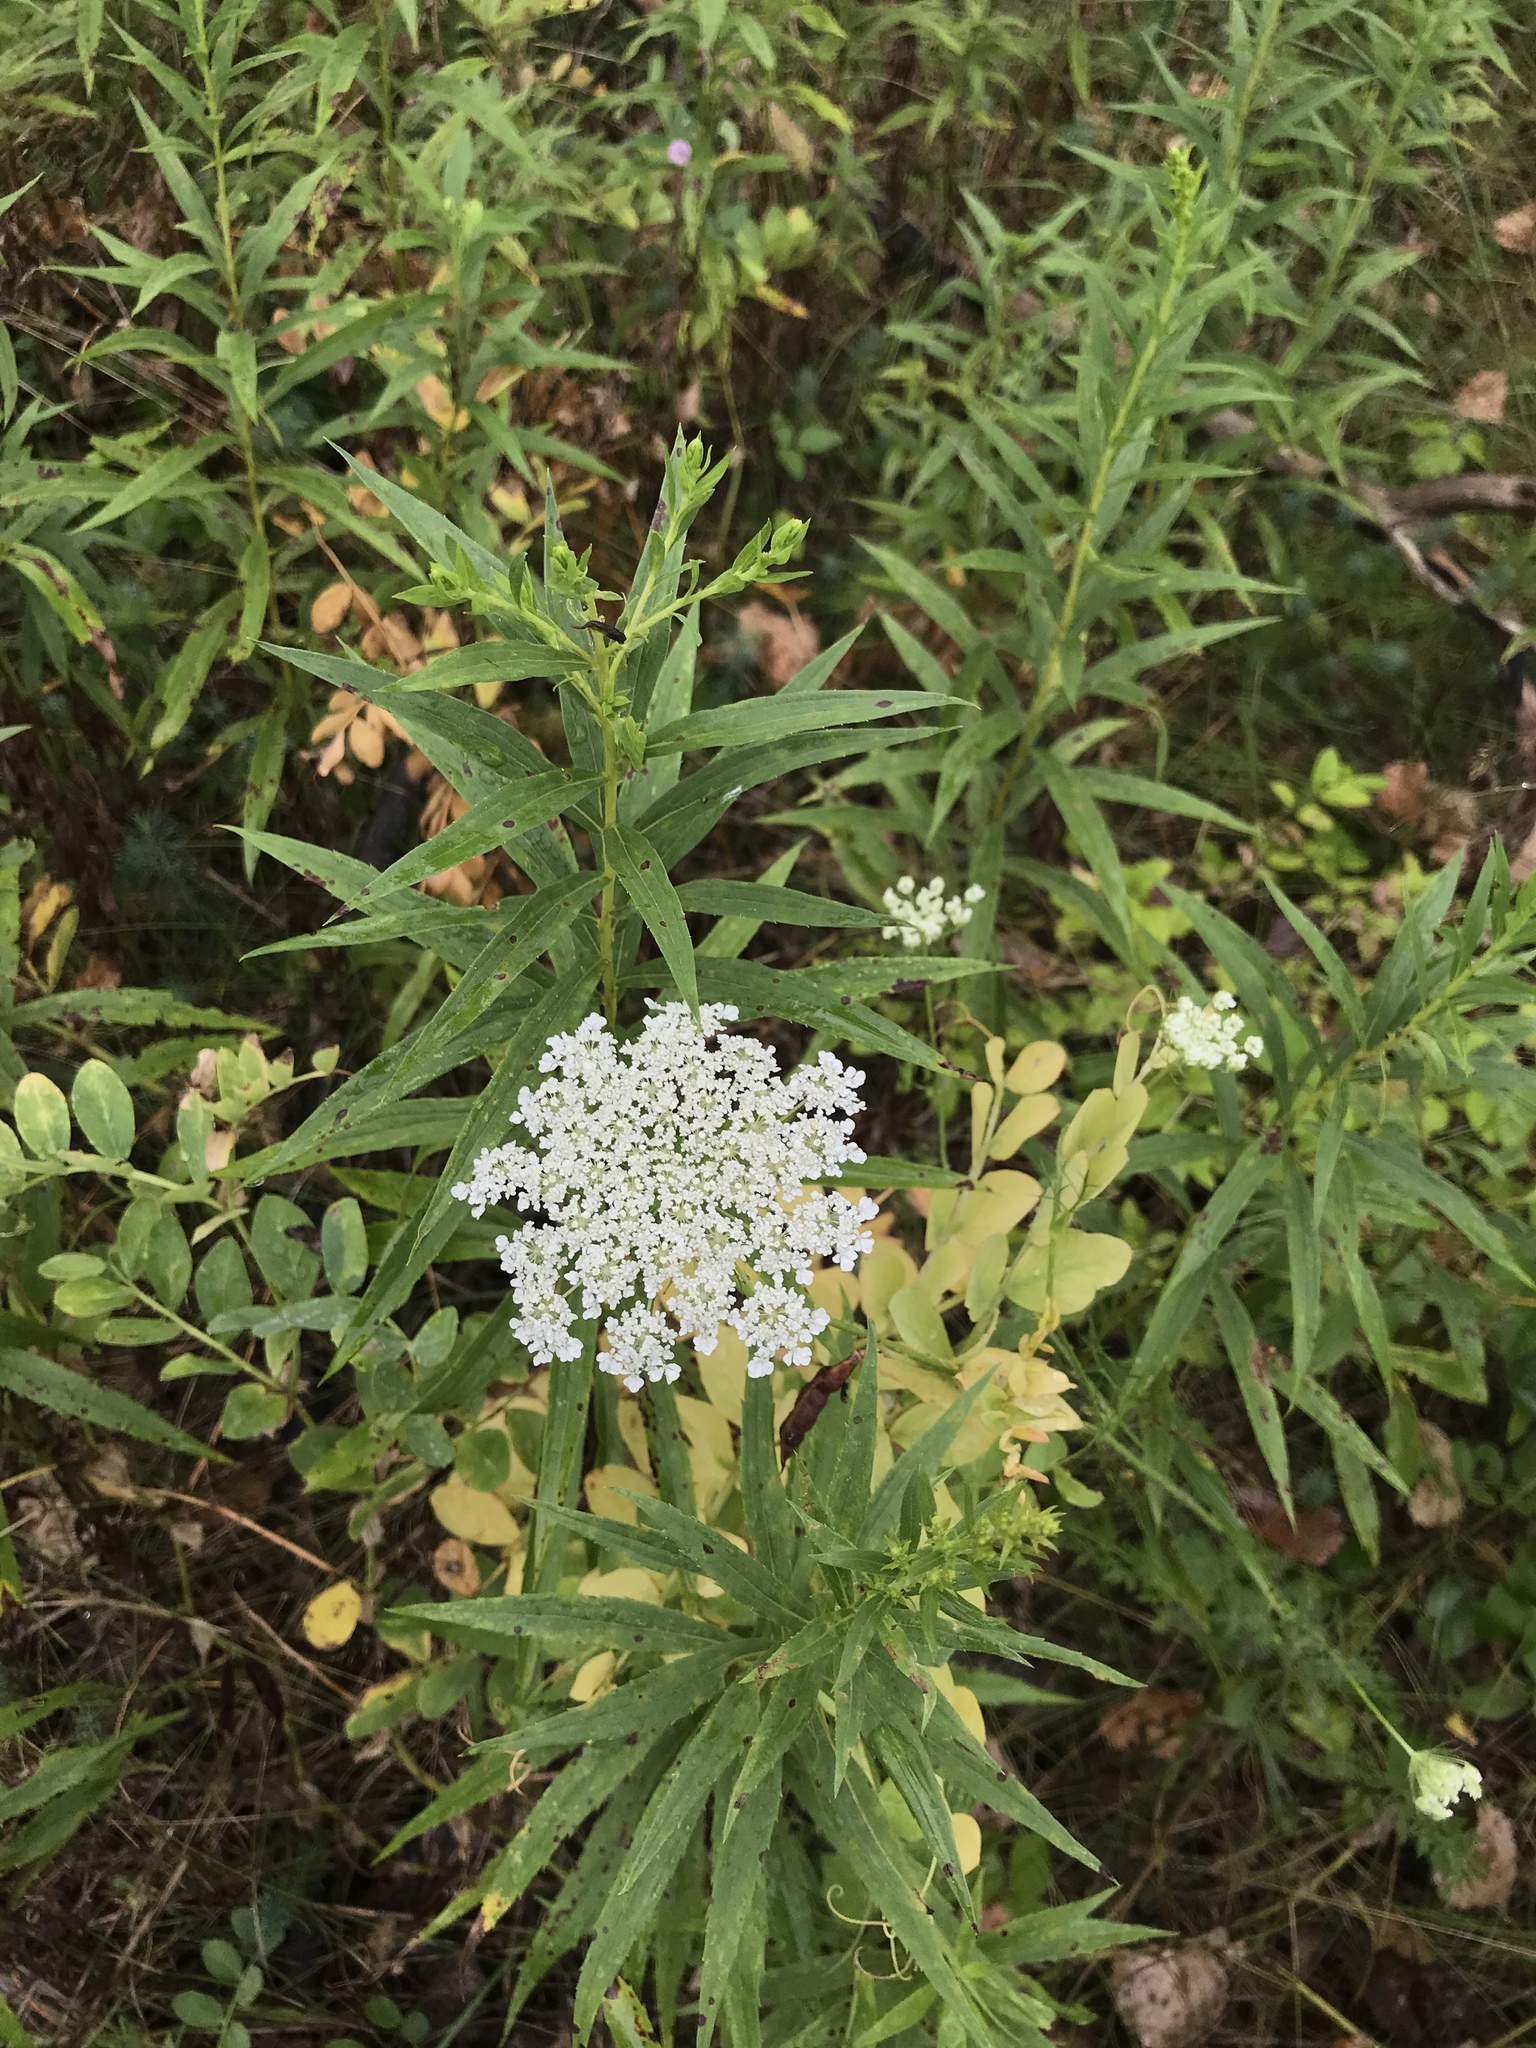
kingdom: Plantae
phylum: Tracheophyta
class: Magnoliopsida
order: Apiales
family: Apiaceae
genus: Daucus
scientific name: Daucus carota
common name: Wild carrot
